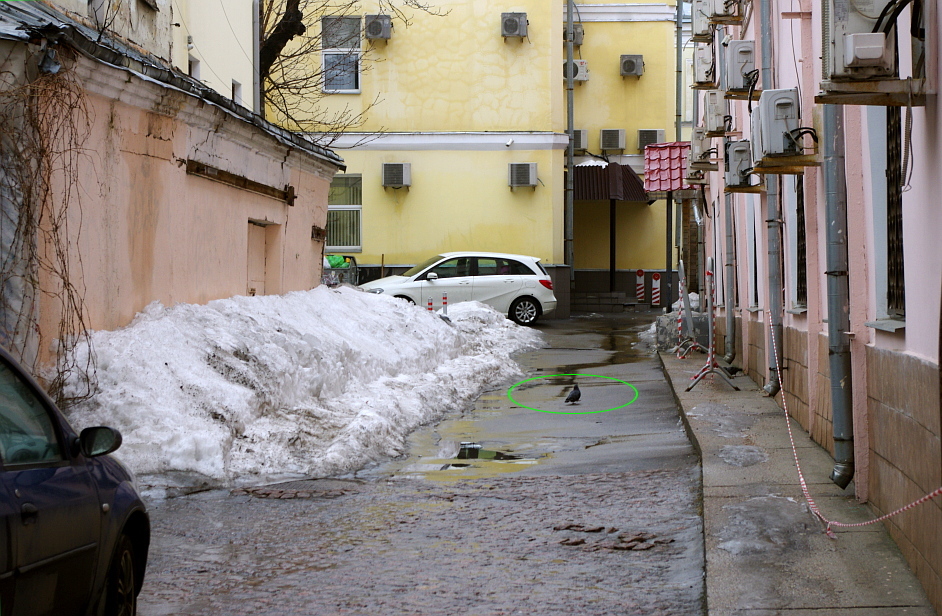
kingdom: Animalia
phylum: Chordata
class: Aves
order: Columbiformes
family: Columbidae
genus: Columba
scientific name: Columba livia
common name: Rock pigeon
